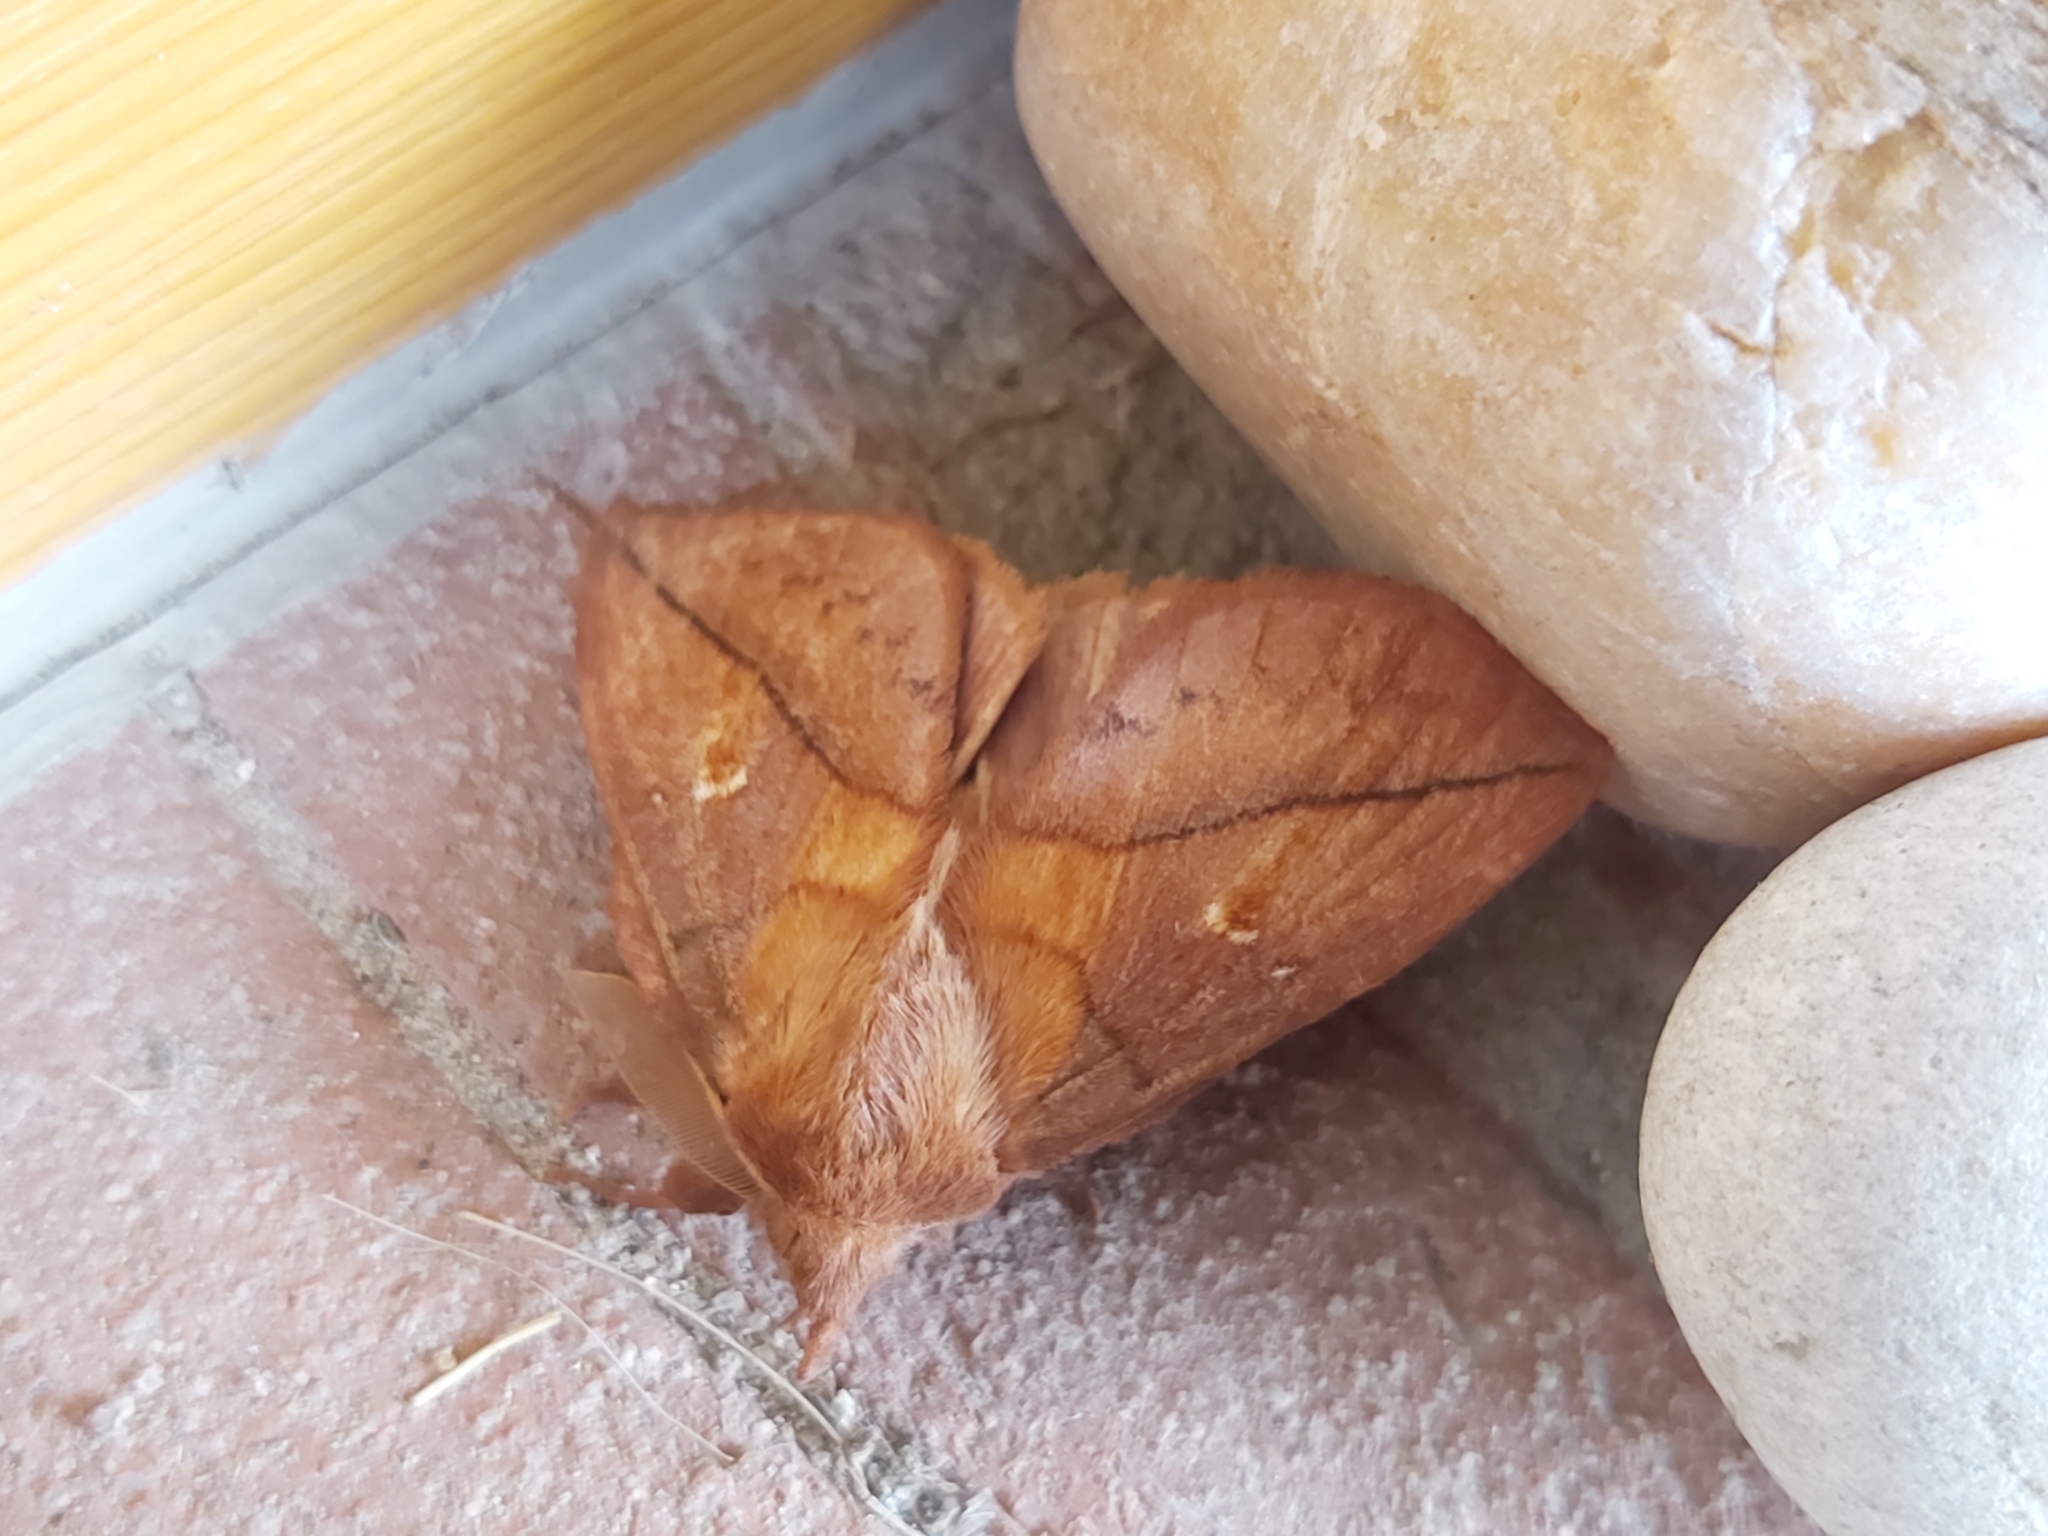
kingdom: Animalia
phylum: Arthropoda
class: Insecta
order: Lepidoptera
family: Lasiocampidae
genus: Euthrix
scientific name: Euthrix potatoria
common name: Drinker
